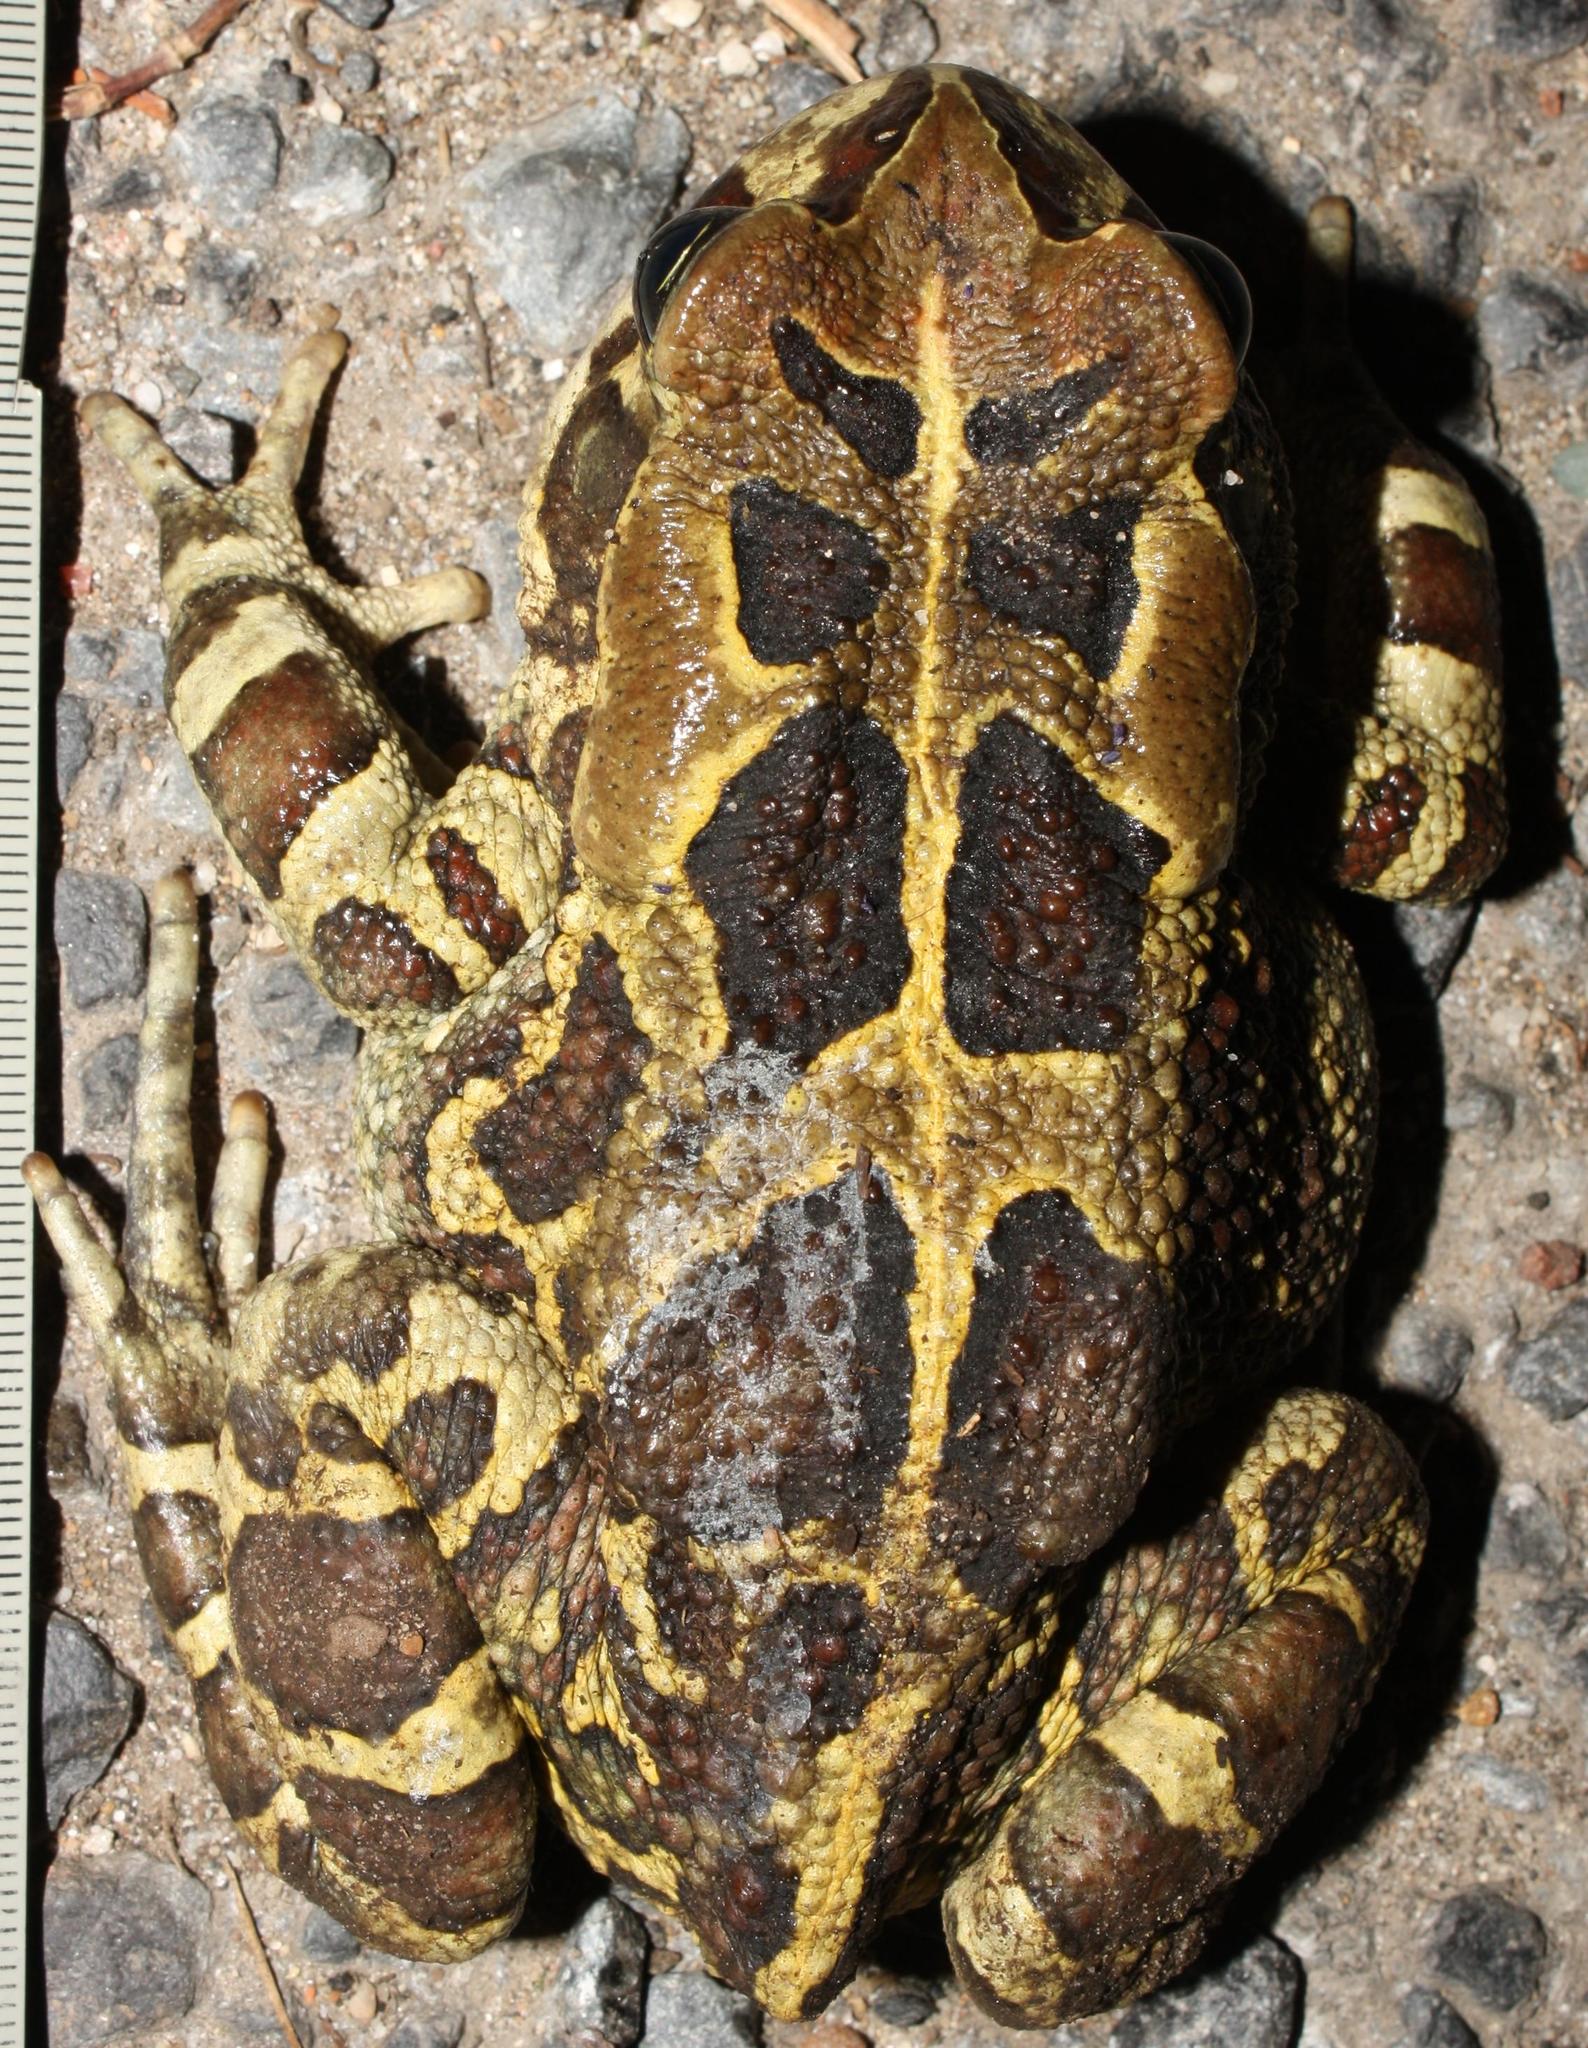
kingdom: Animalia
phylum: Chordata
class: Amphibia
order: Anura
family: Bufonidae
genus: Sclerophrys
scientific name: Sclerophrys pantherina
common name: Panther toad
